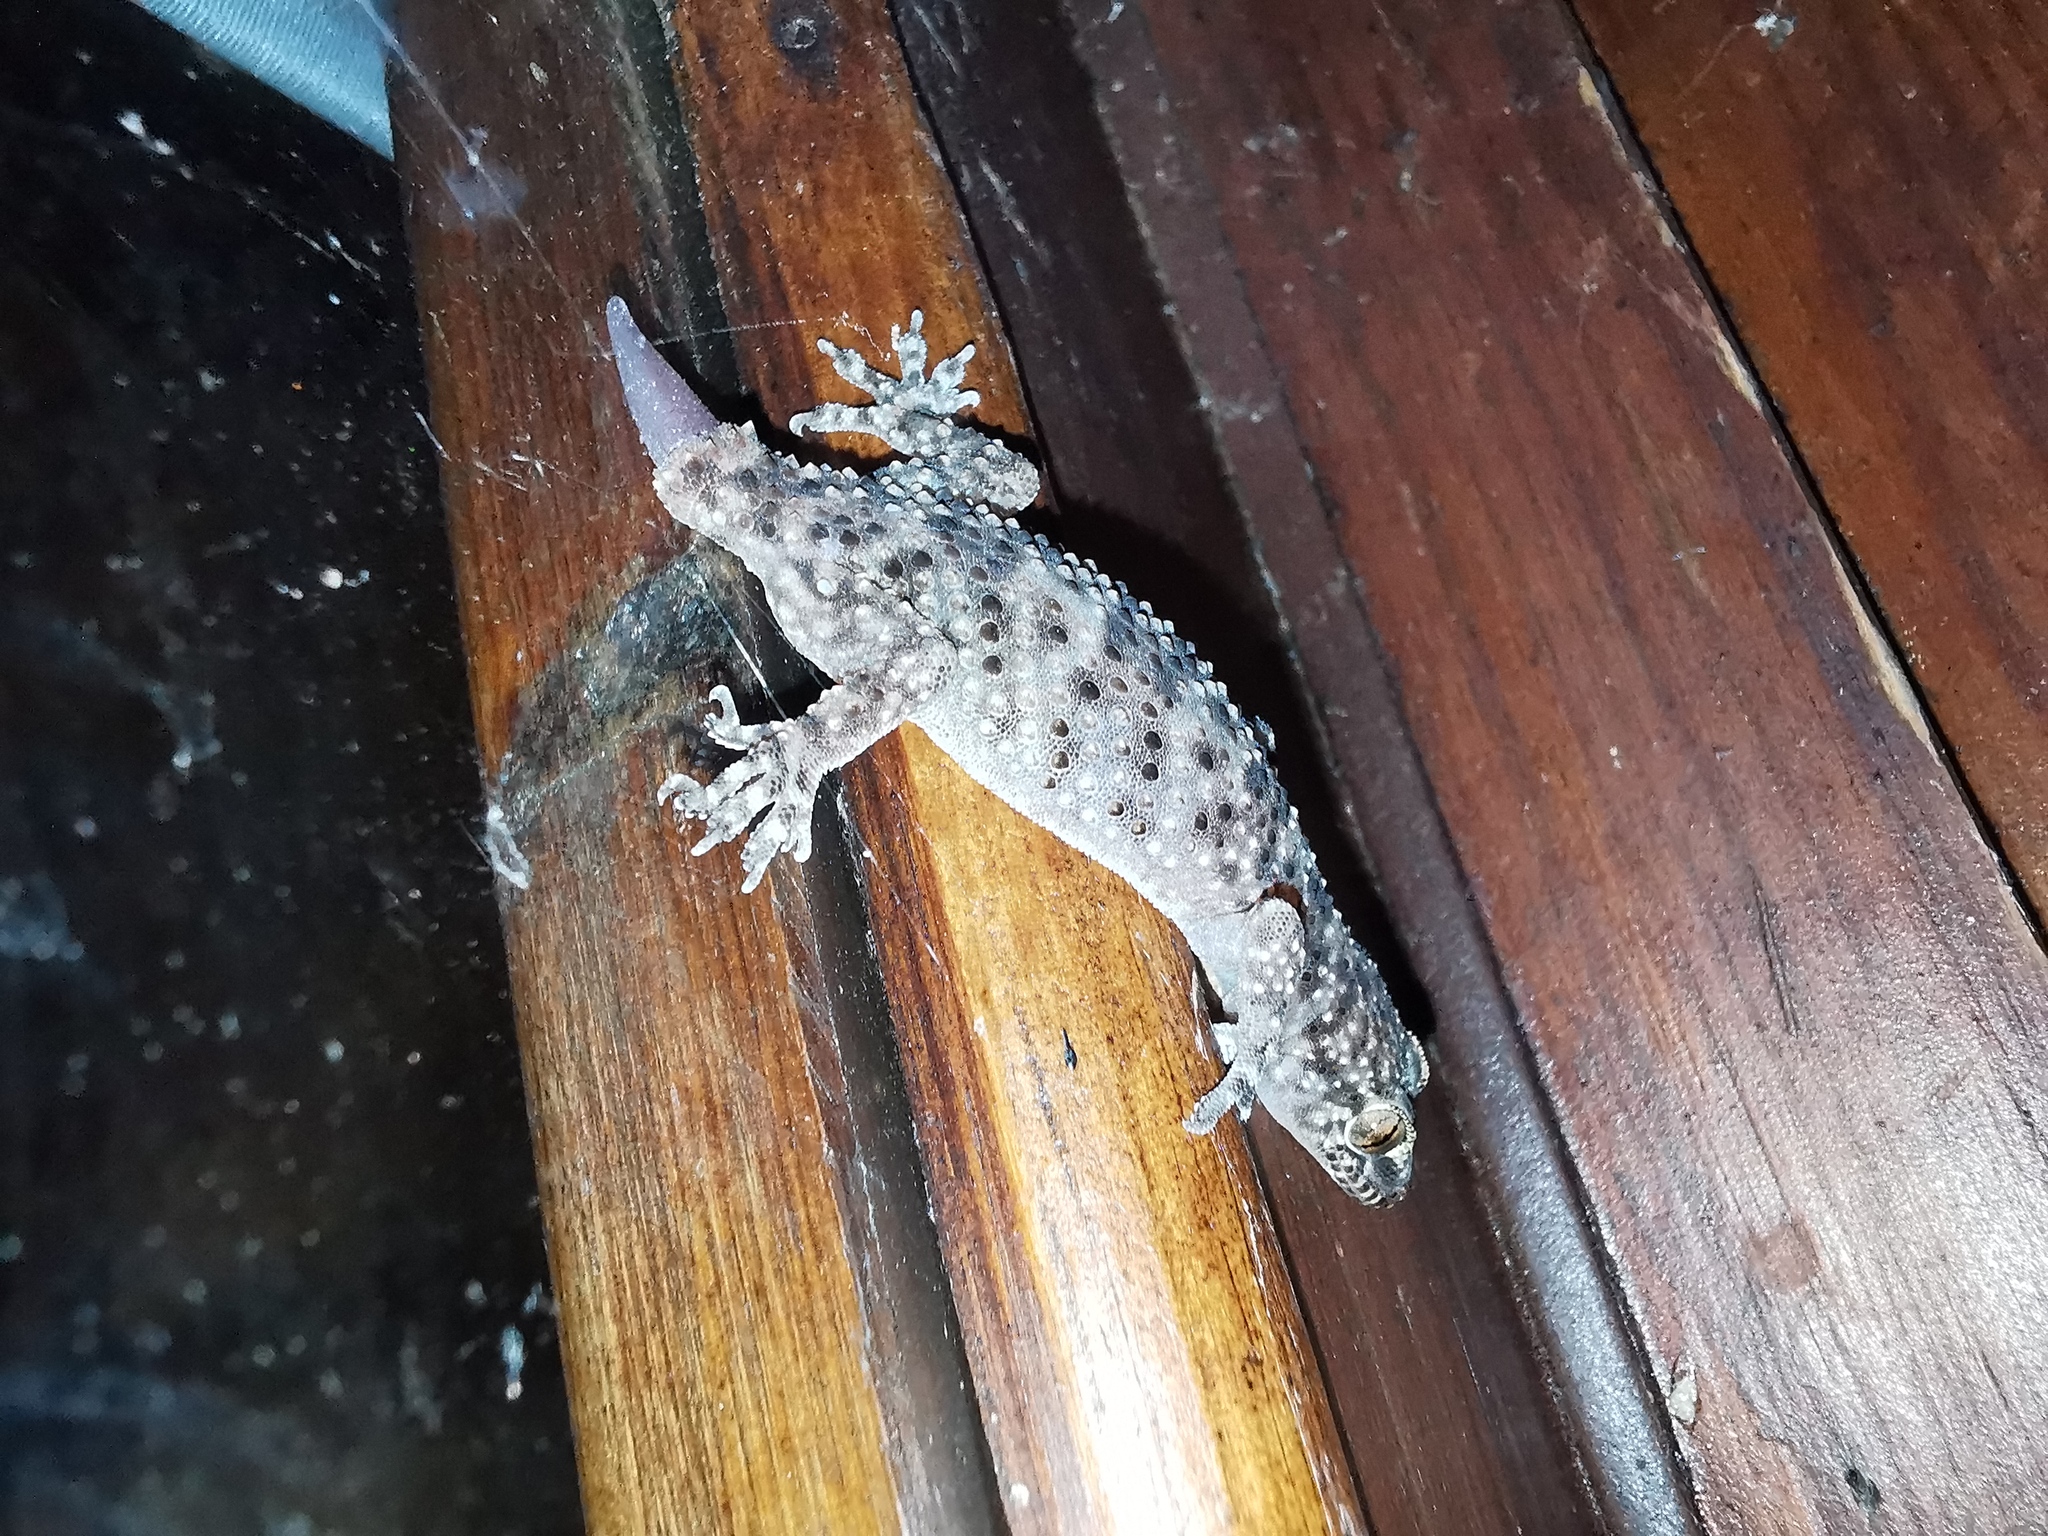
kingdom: Animalia
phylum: Chordata
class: Squamata
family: Gekkonidae
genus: Hemidactylus
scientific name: Hemidactylus turcicus
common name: Turkish gecko
